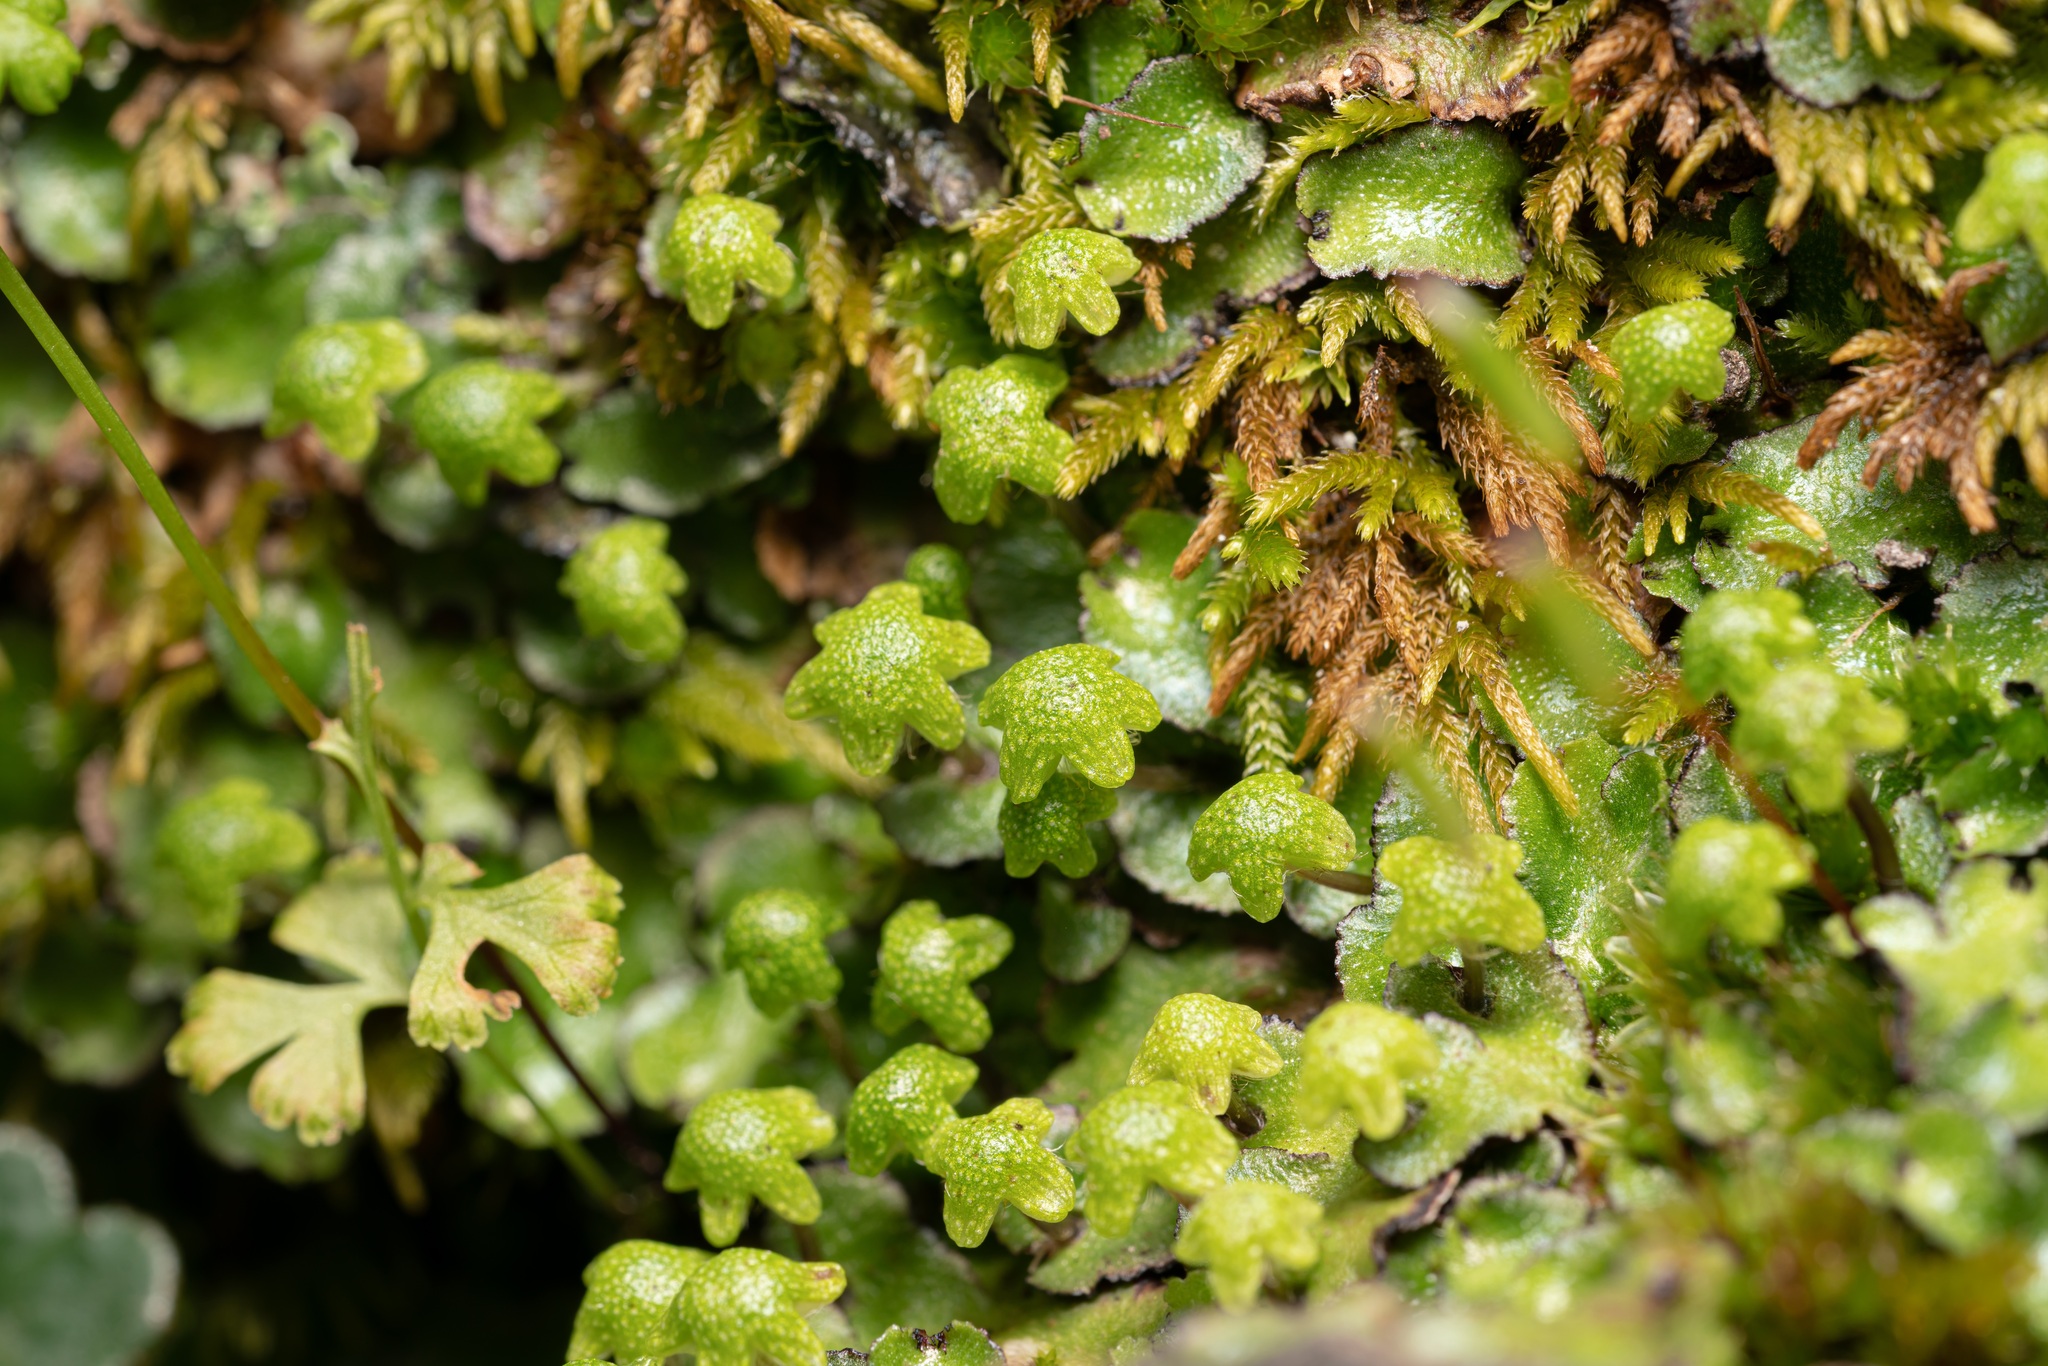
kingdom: Plantae
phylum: Marchantiophyta
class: Marchantiopsida
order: Marchantiales
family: Aytoniaceae
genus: Reboulia
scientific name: Reboulia hemisphaerica
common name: Purple-margined liverwort
